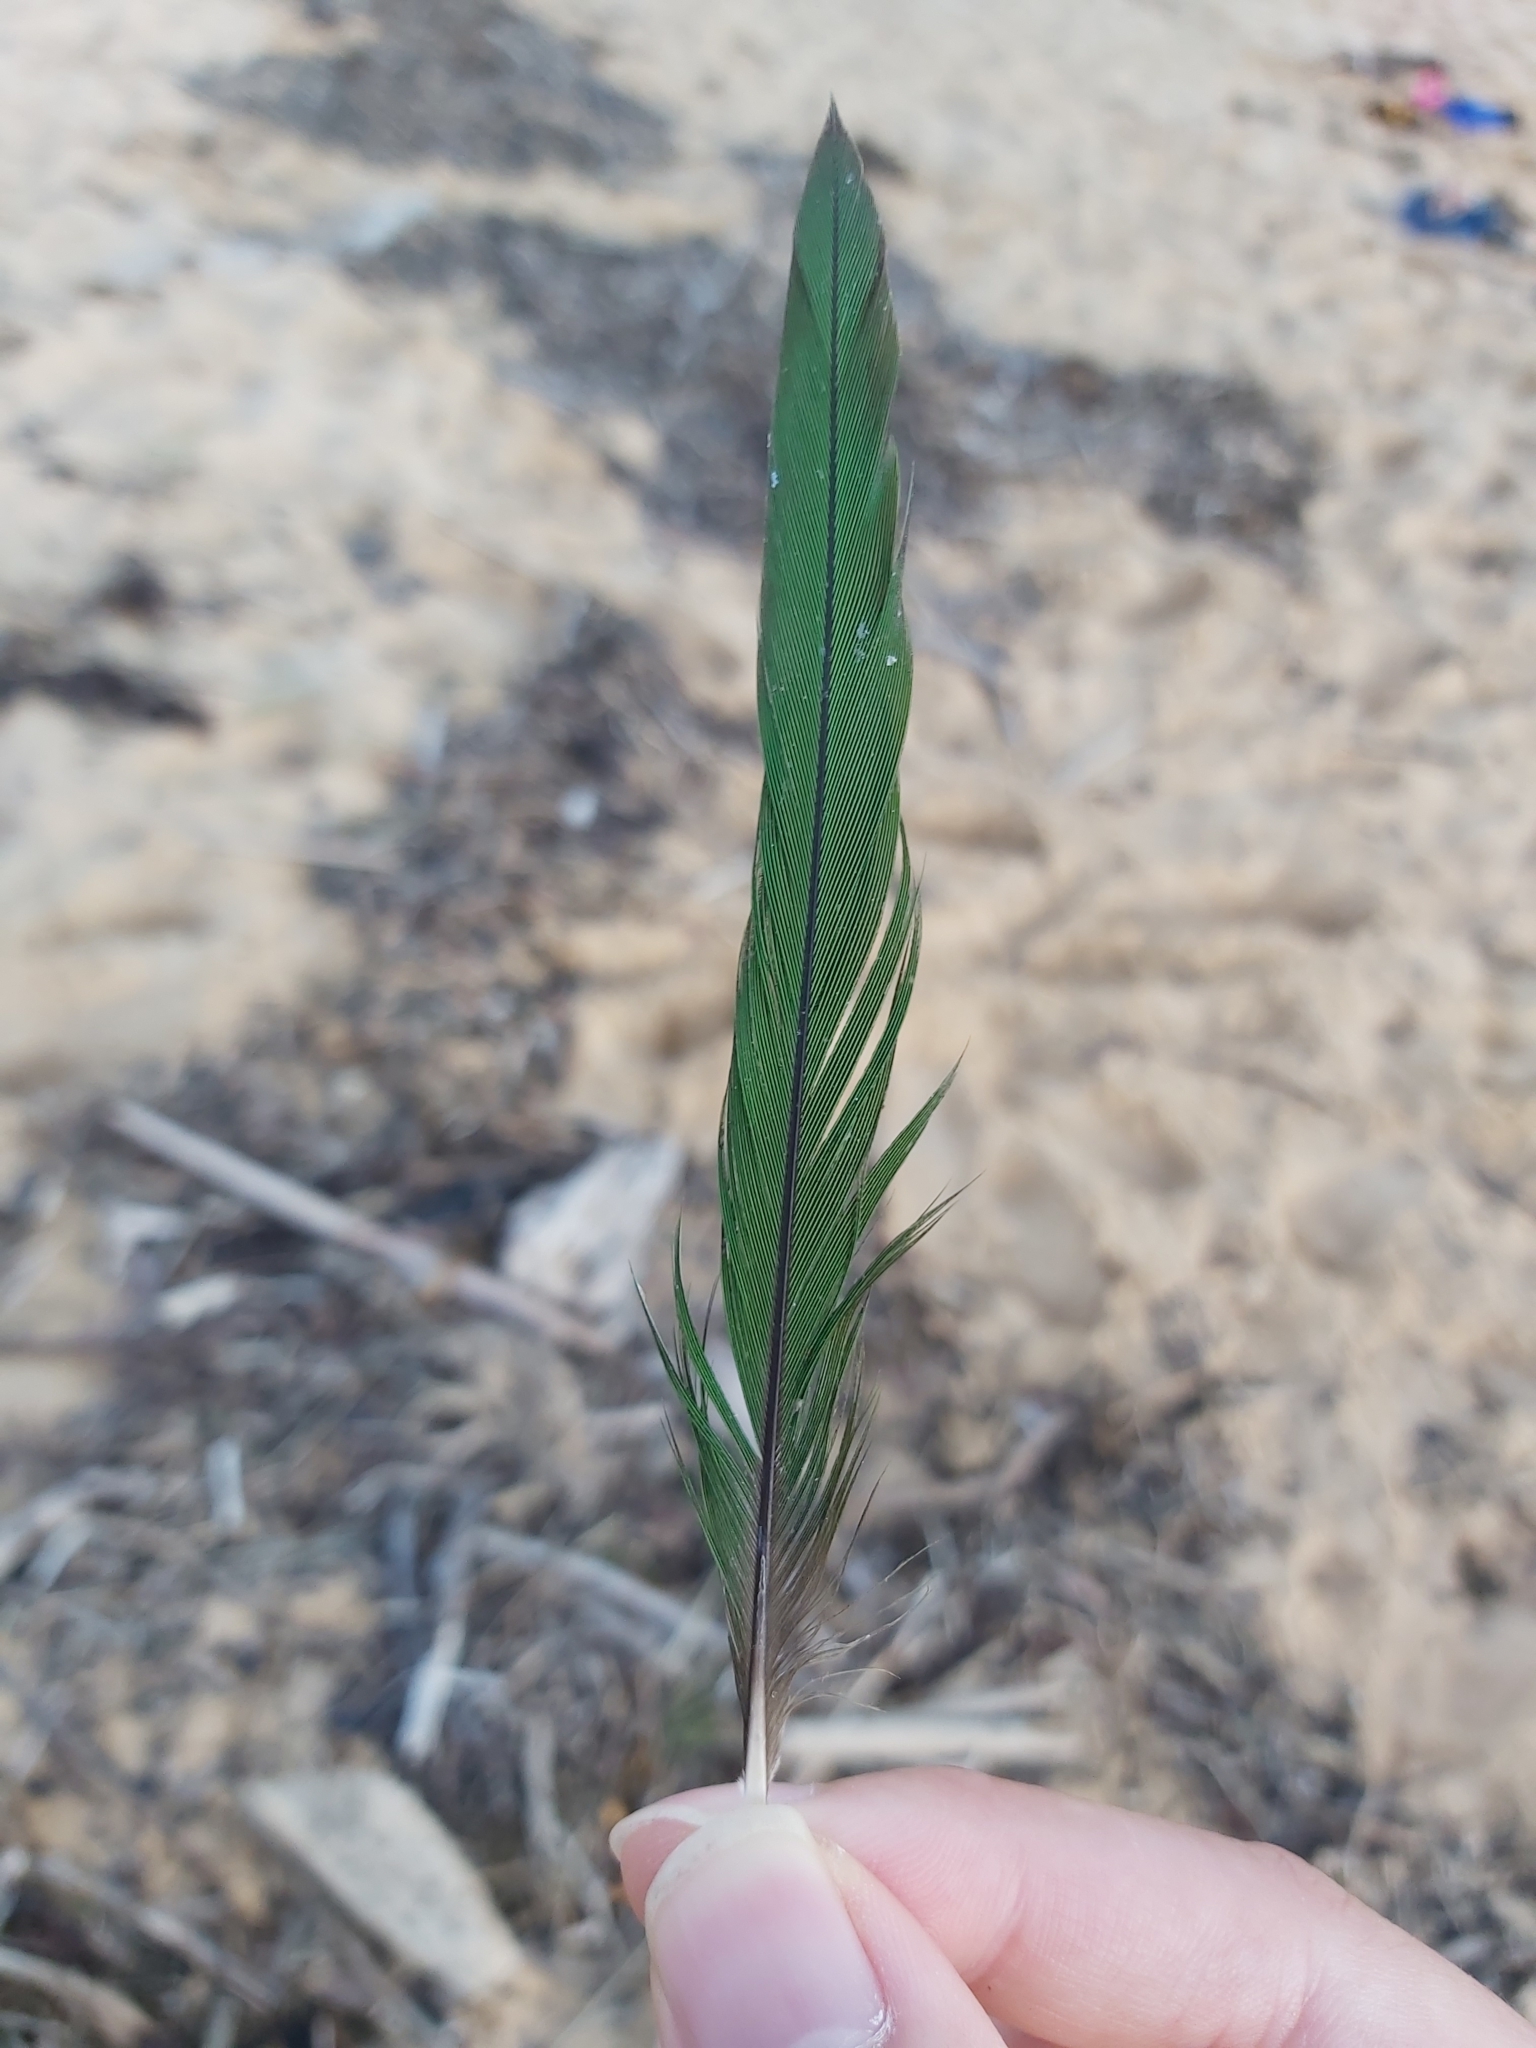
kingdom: Animalia
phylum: Chordata
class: Aves
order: Psittaciformes
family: Psittacidae
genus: Trichoglossus
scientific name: Trichoglossus haematodus
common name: Coconut lorikeet
